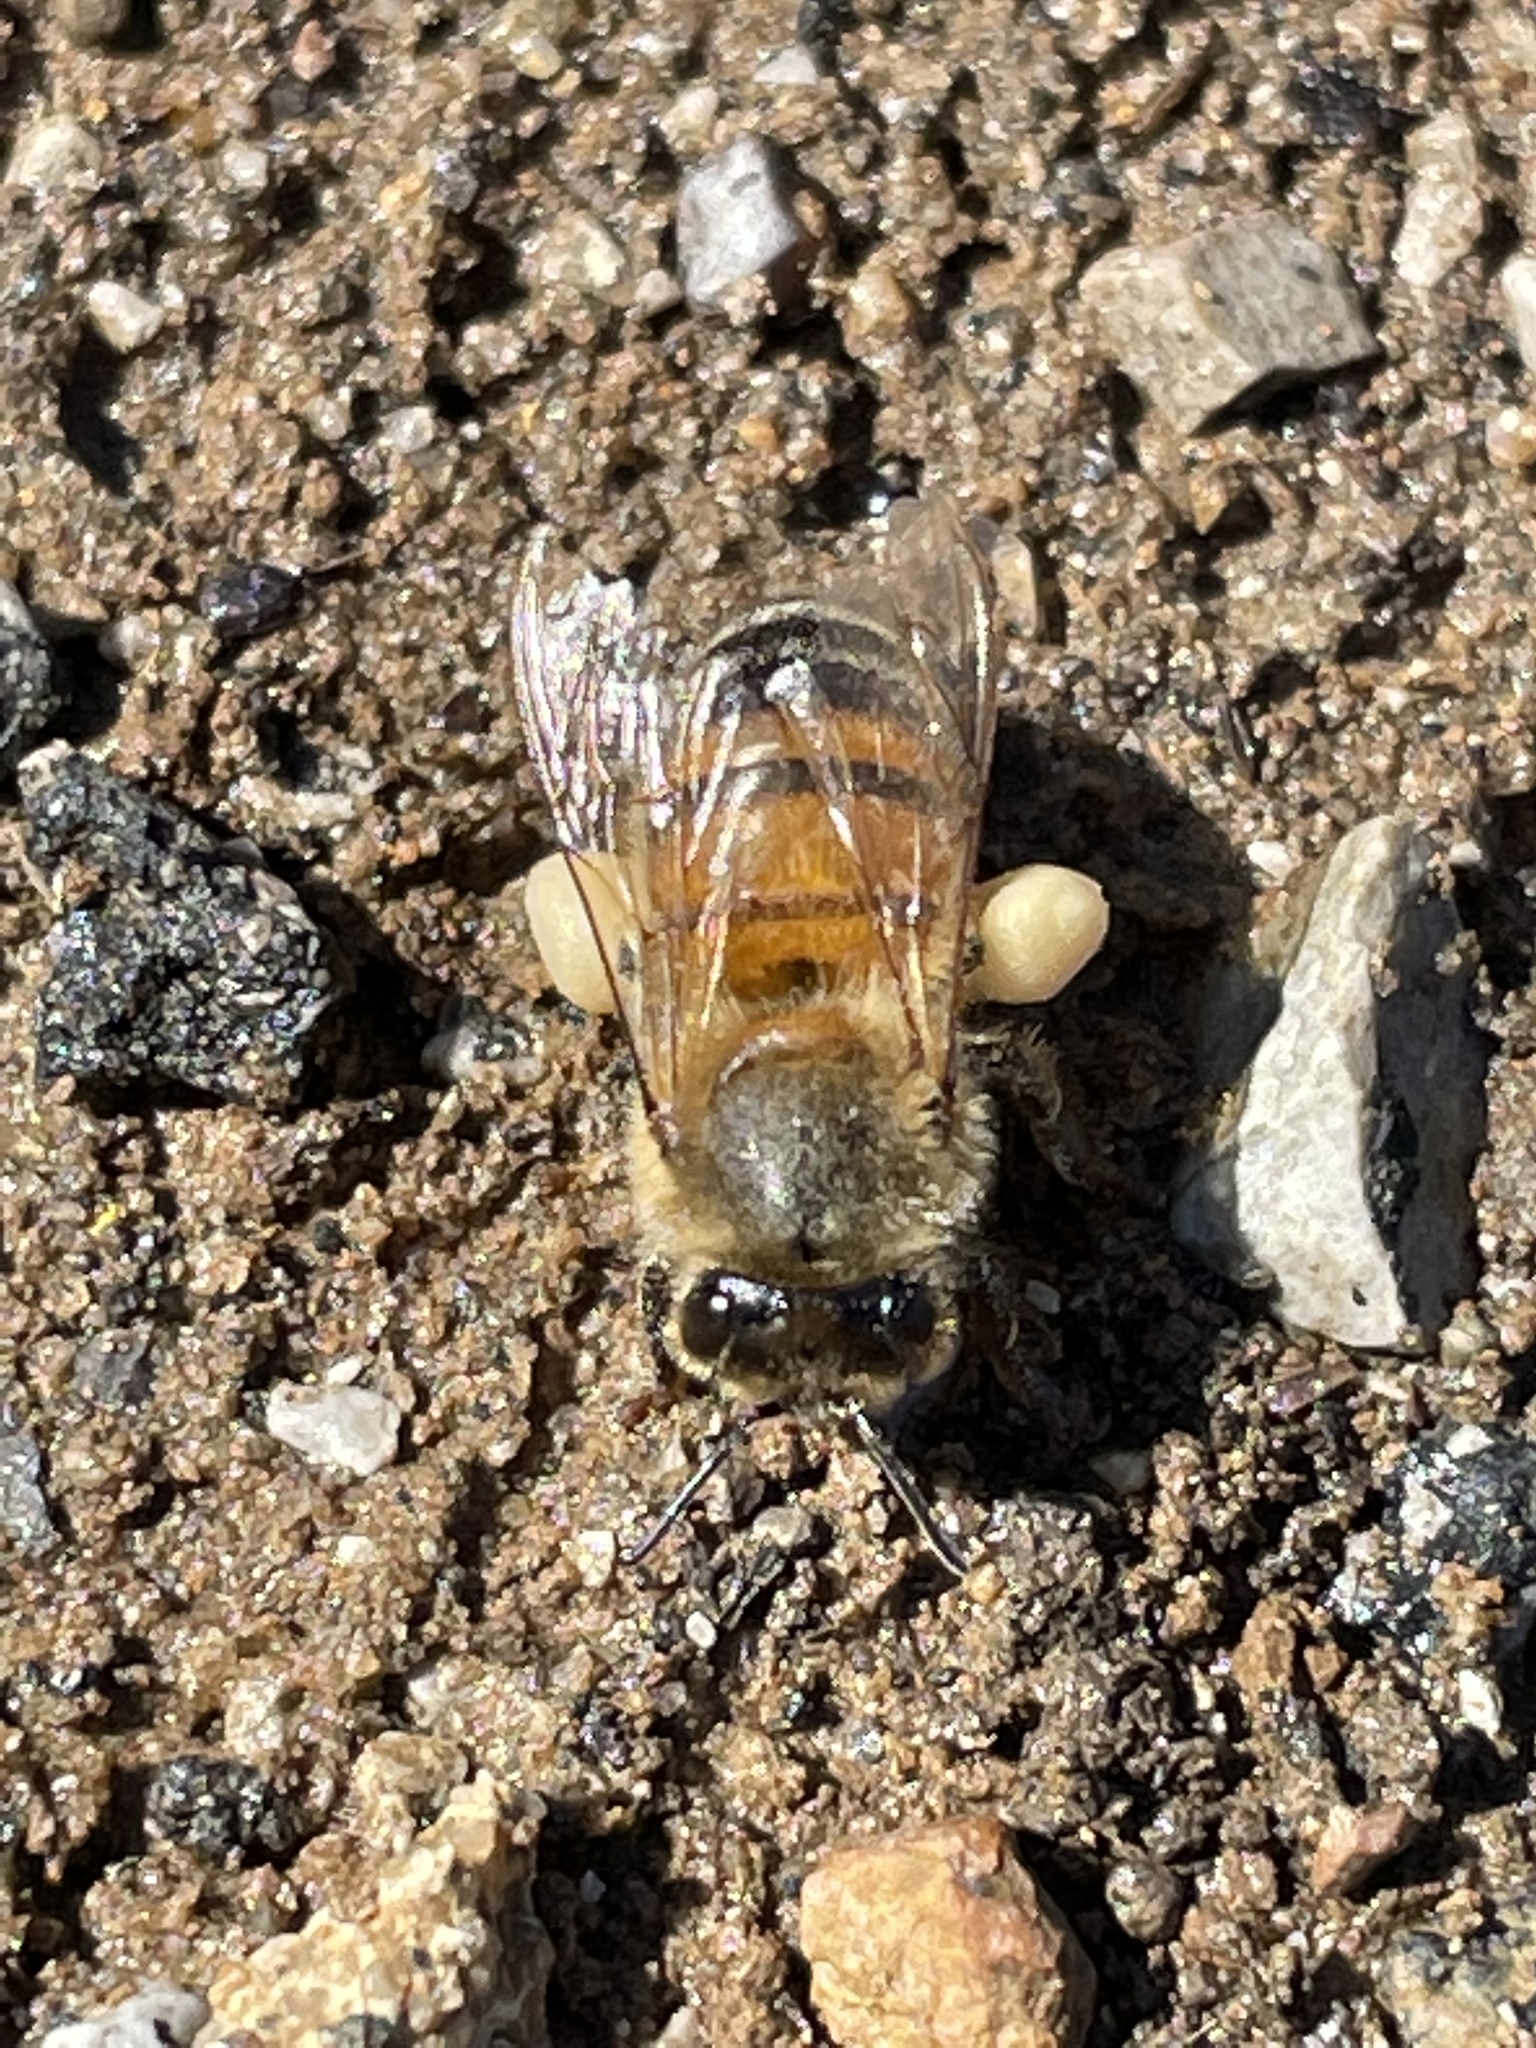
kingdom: Animalia
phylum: Arthropoda
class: Insecta
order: Hymenoptera
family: Apidae
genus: Apis
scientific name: Apis mellifera
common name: Honey bee
